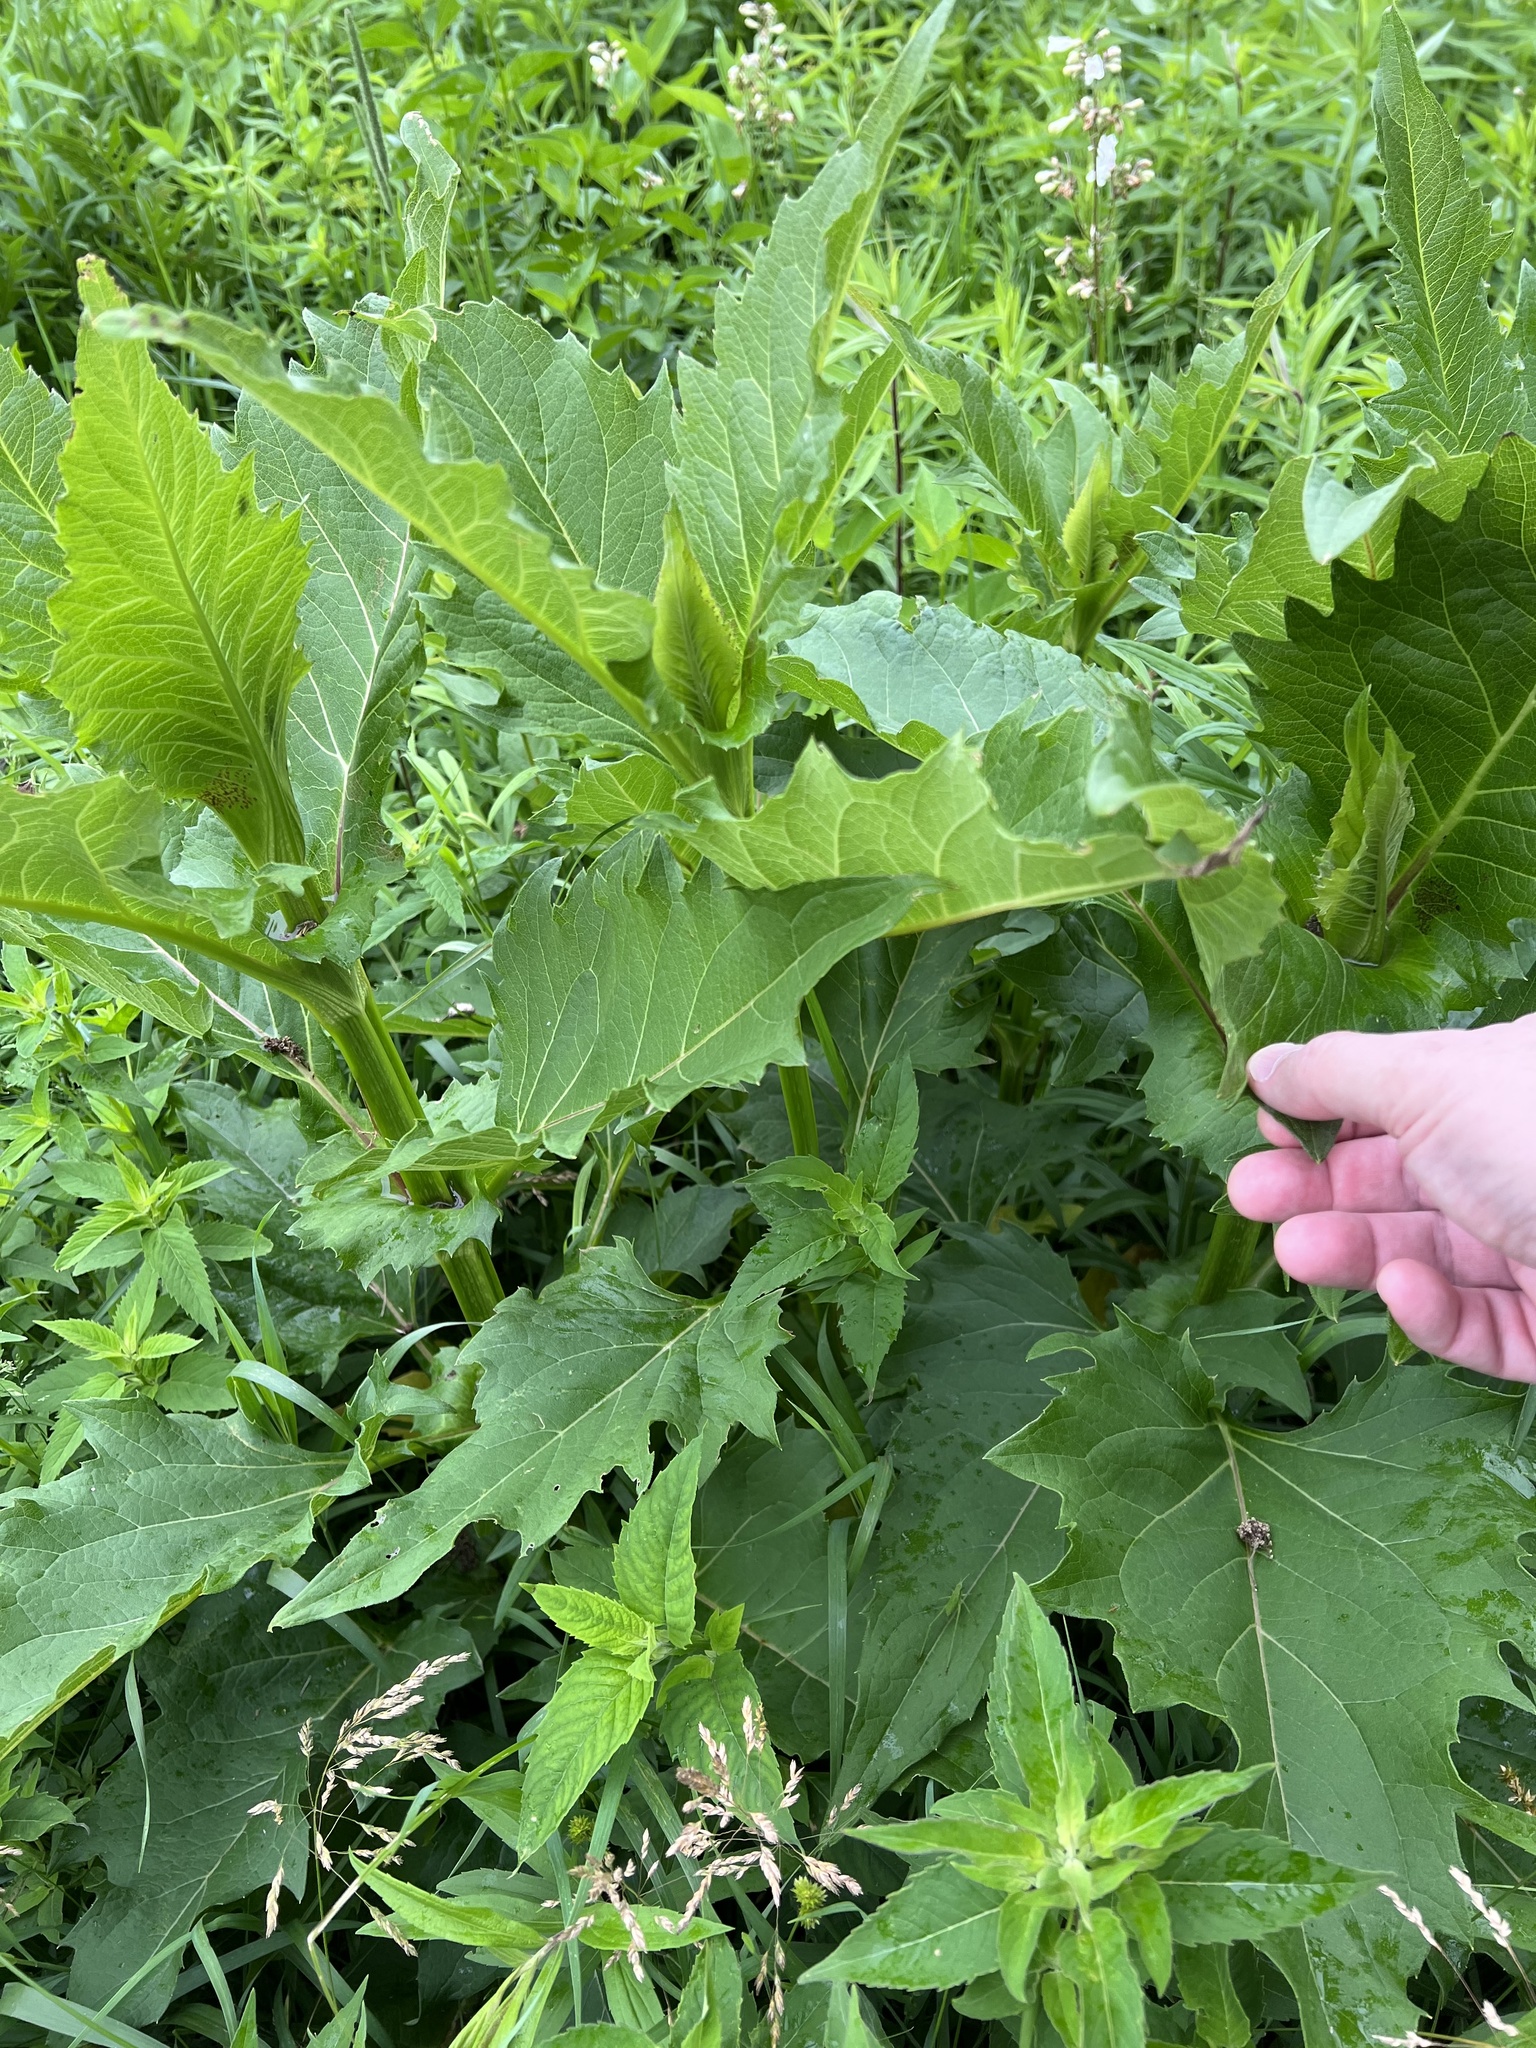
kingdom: Plantae
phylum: Tracheophyta
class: Magnoliopsida
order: Asterales
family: Asteraceae
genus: Silphium
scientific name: Silphium perfoliatum
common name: Cup-plant
